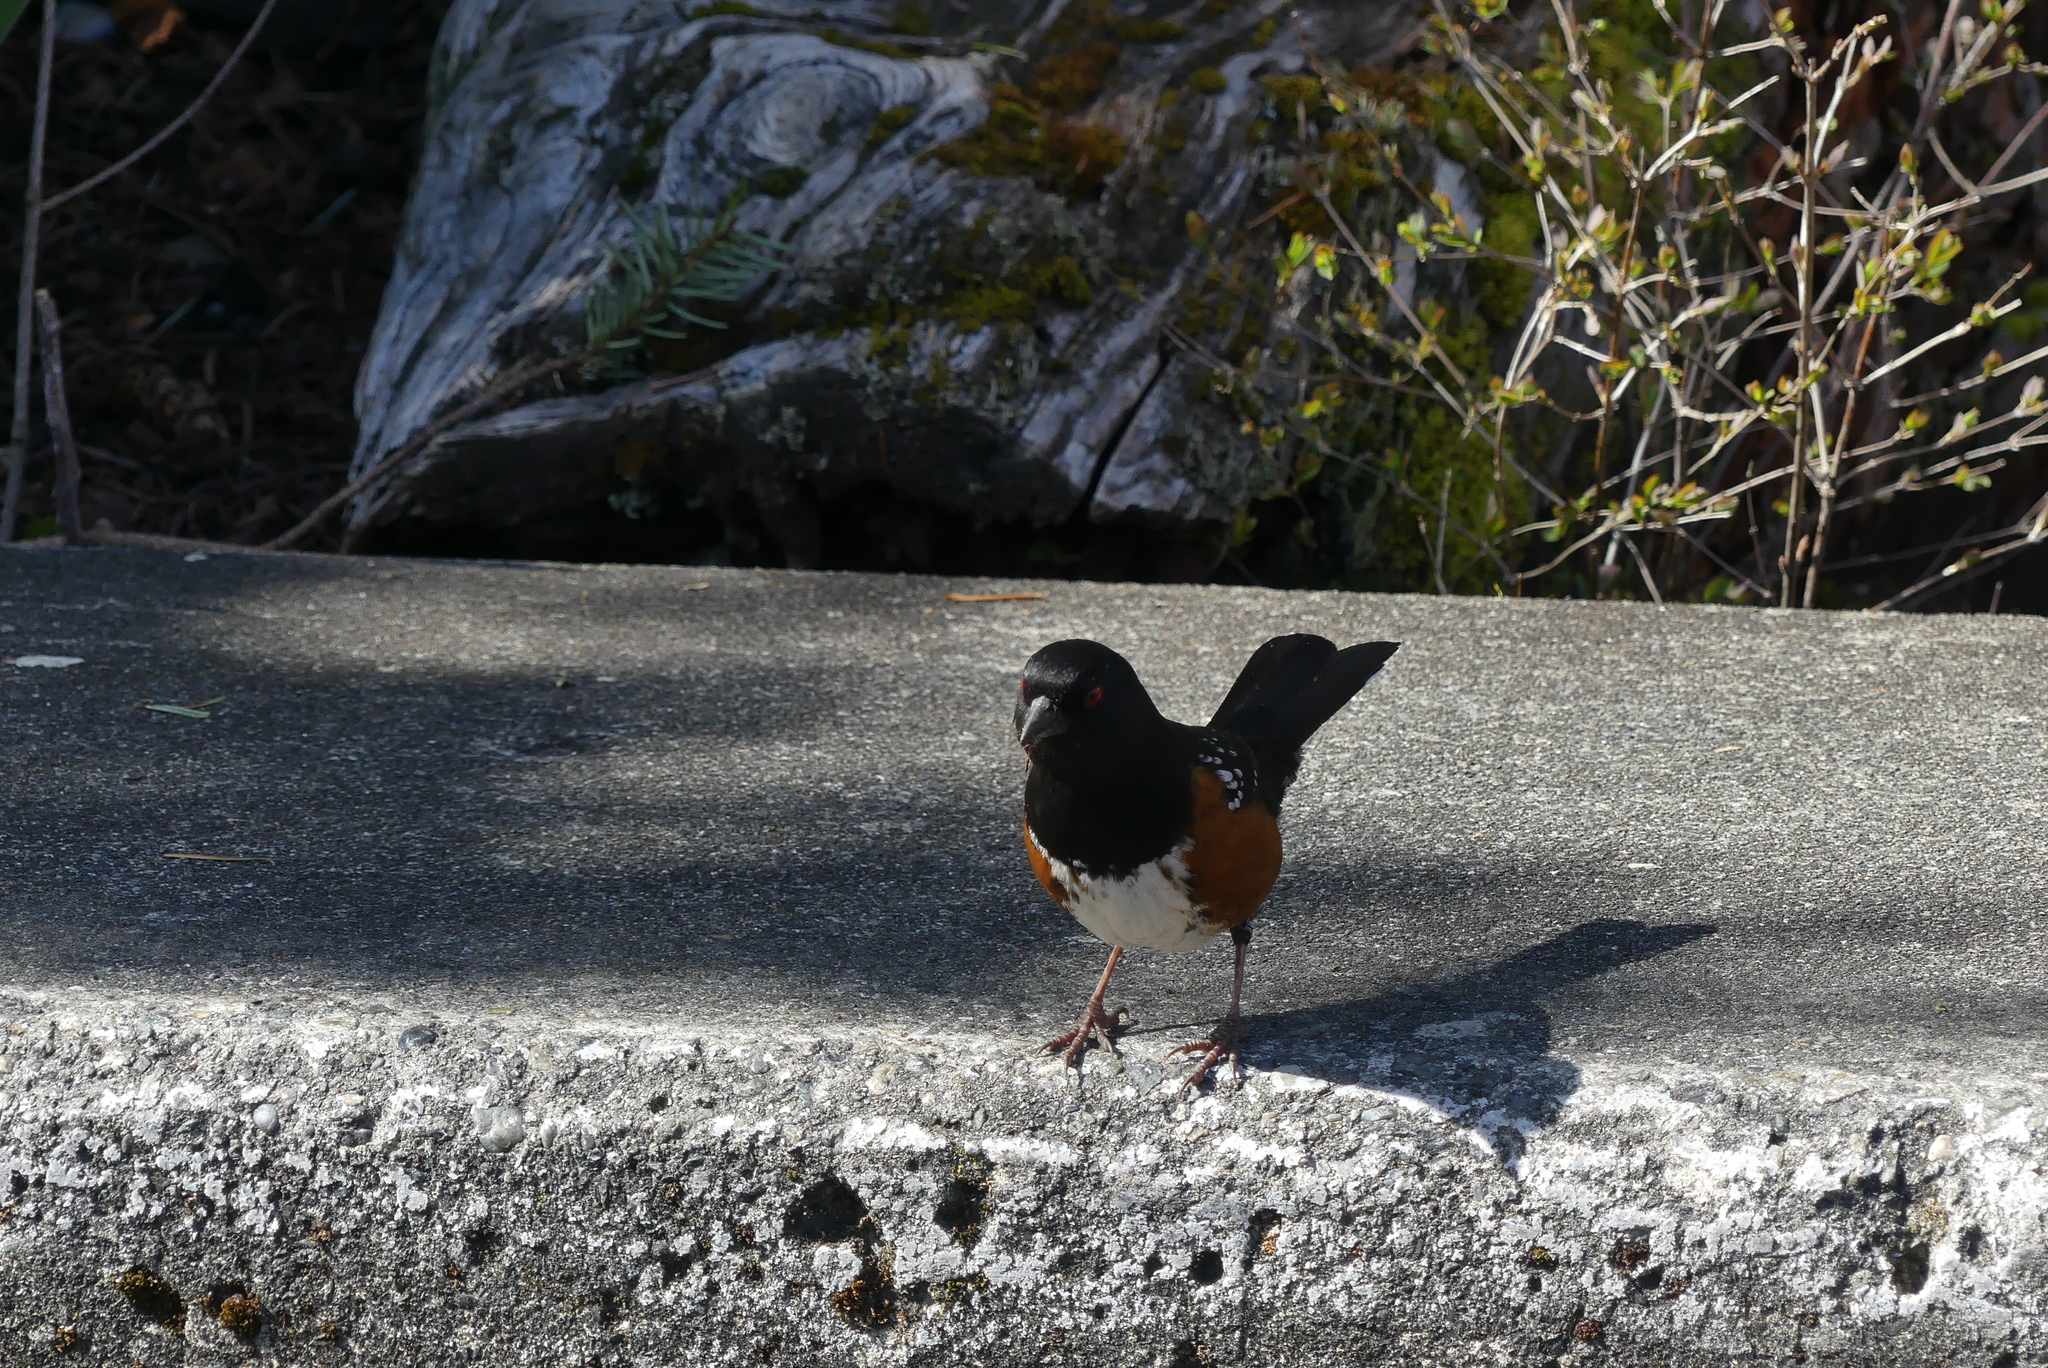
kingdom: Animalia
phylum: Chordata
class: Aves
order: Passeriformes
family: Passerellidae
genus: Pipilo
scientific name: Pipilo maculatus
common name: Spotted towhee
